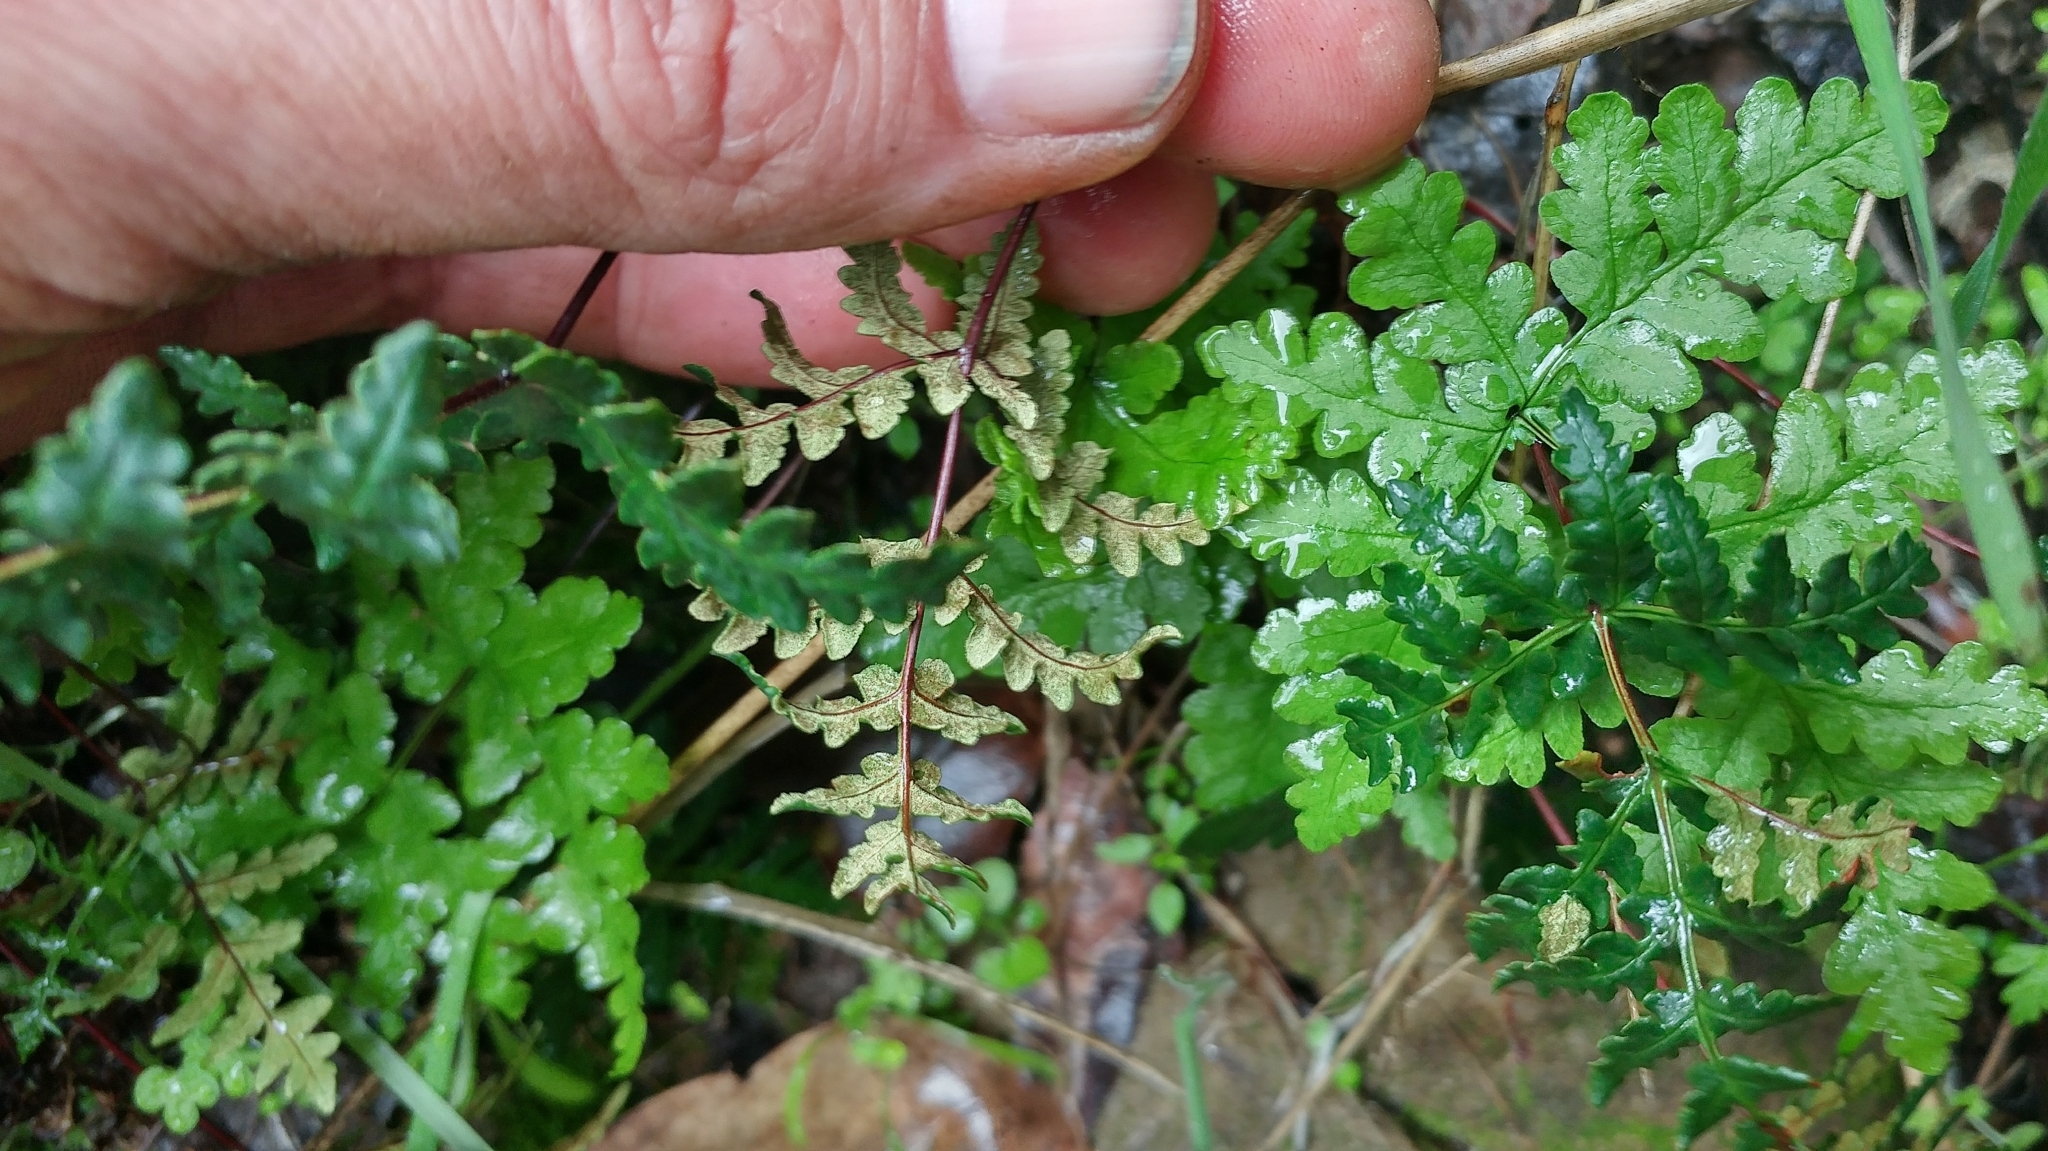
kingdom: Plantae
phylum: Tracheophyta
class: Polypodiopsida
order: Polypodiales
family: Pteridaceae
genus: Pentagramma
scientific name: Pentagramma triangularis
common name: Gold fern
